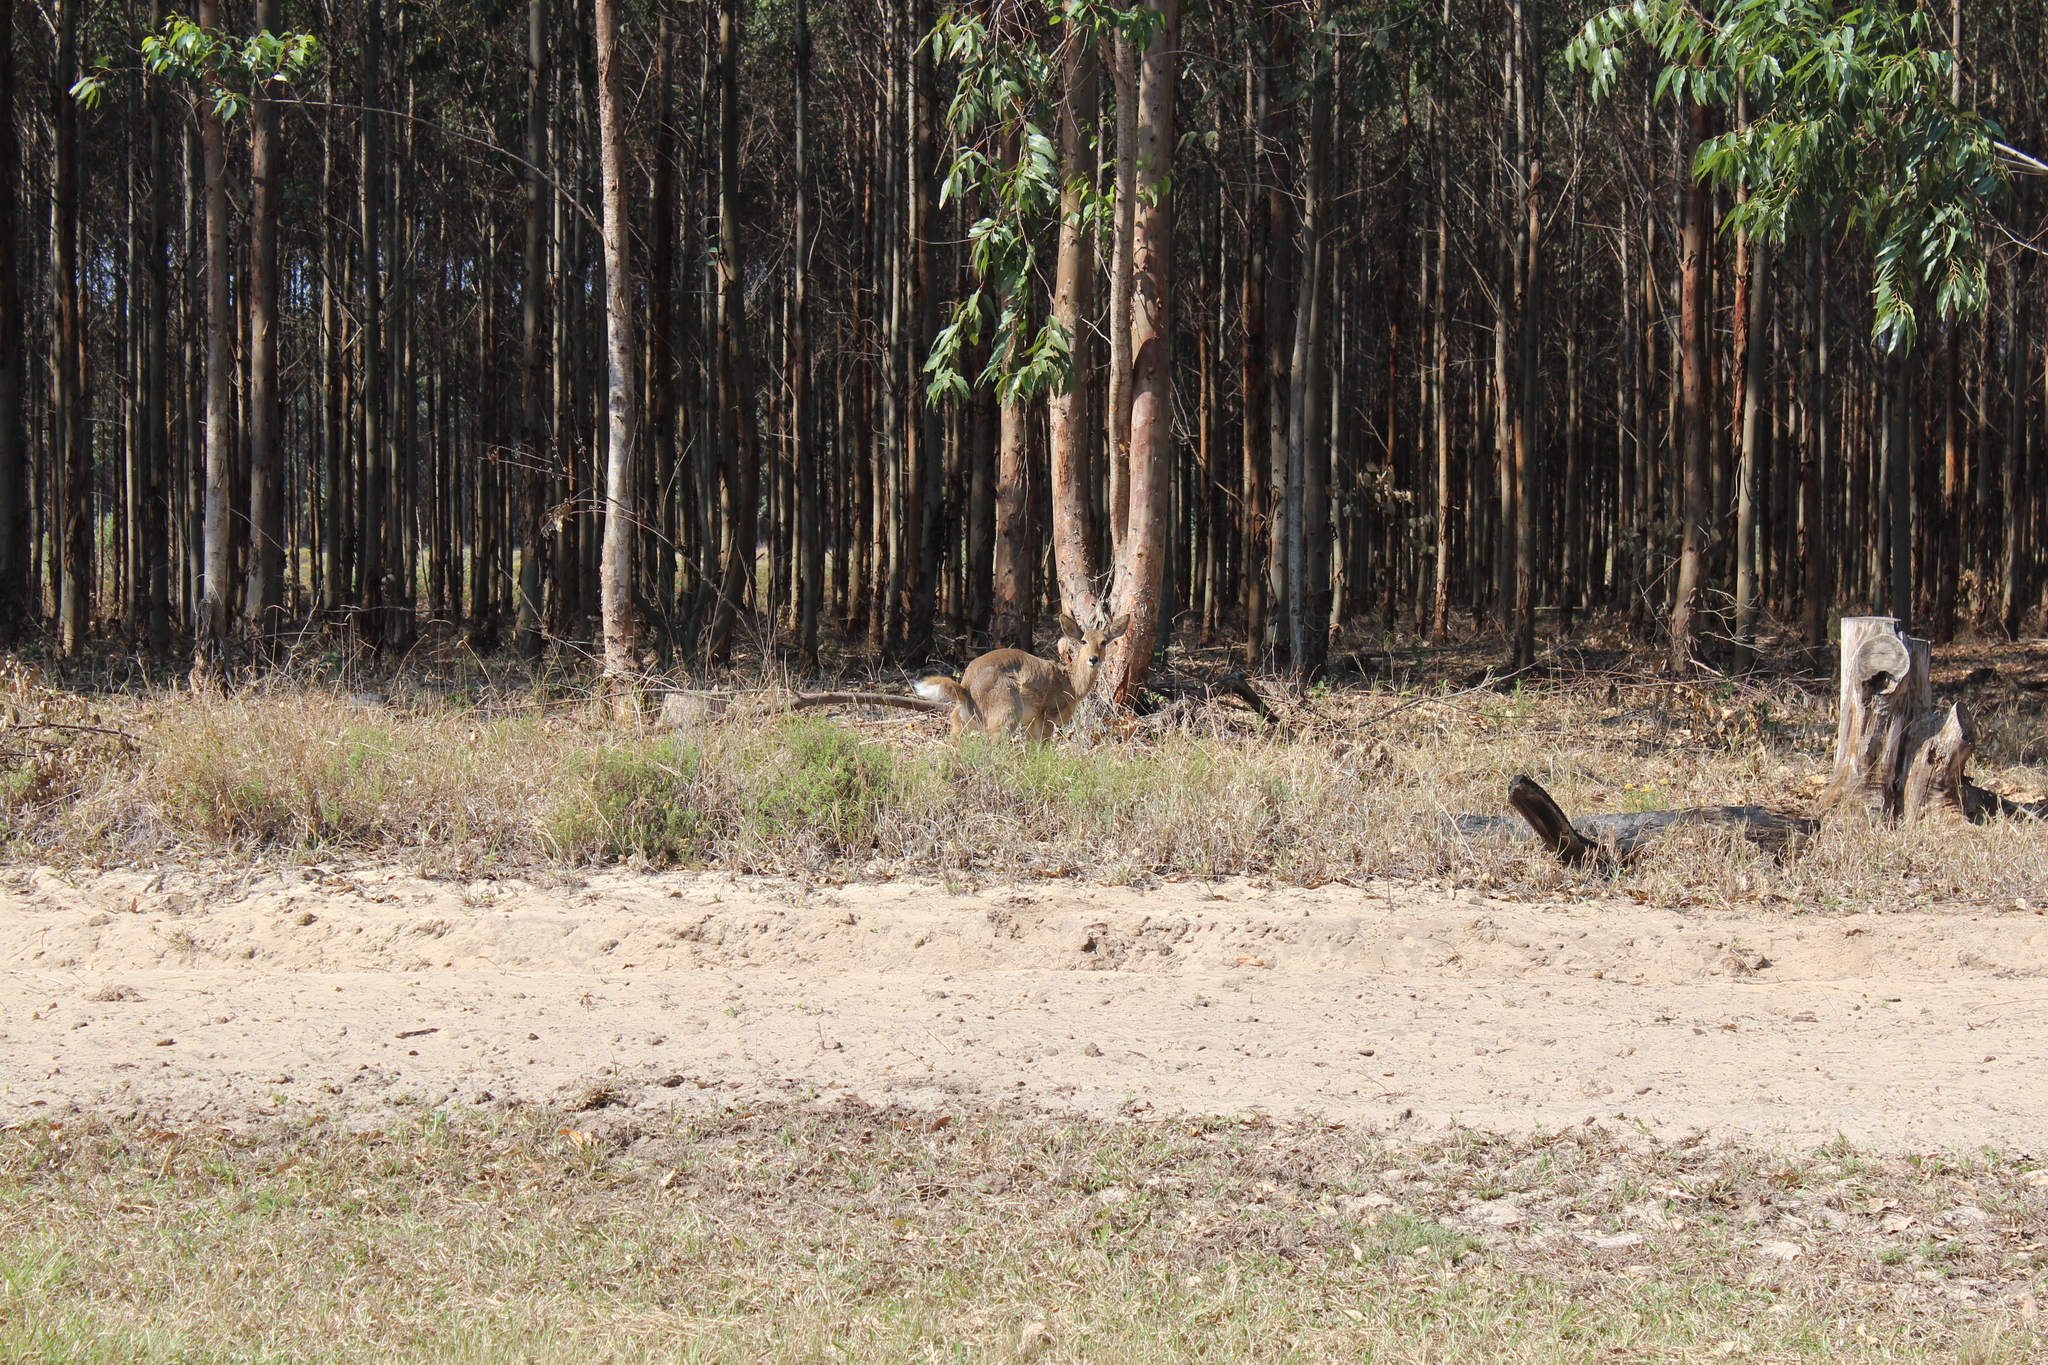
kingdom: Animalia
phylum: Chordata
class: Mammalia
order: Artiodactyla
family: Bovidae
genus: Redunca
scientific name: Redunca arundinum
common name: Southern reedbuck
